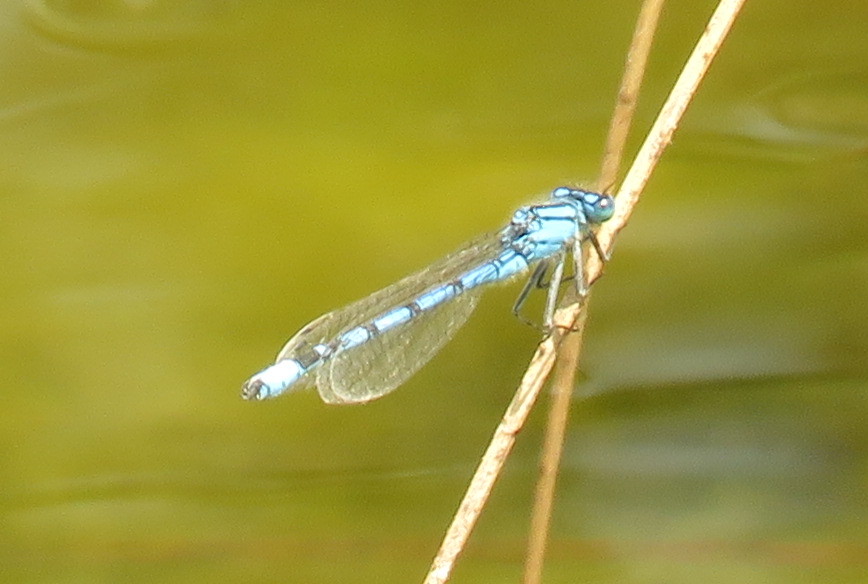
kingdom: Animalia
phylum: Arthropoda
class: Insecta
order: Odonata
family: Coenagrionidae
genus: Enallagma
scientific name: Enallagma cyathigerum
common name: Common blue damselfly
